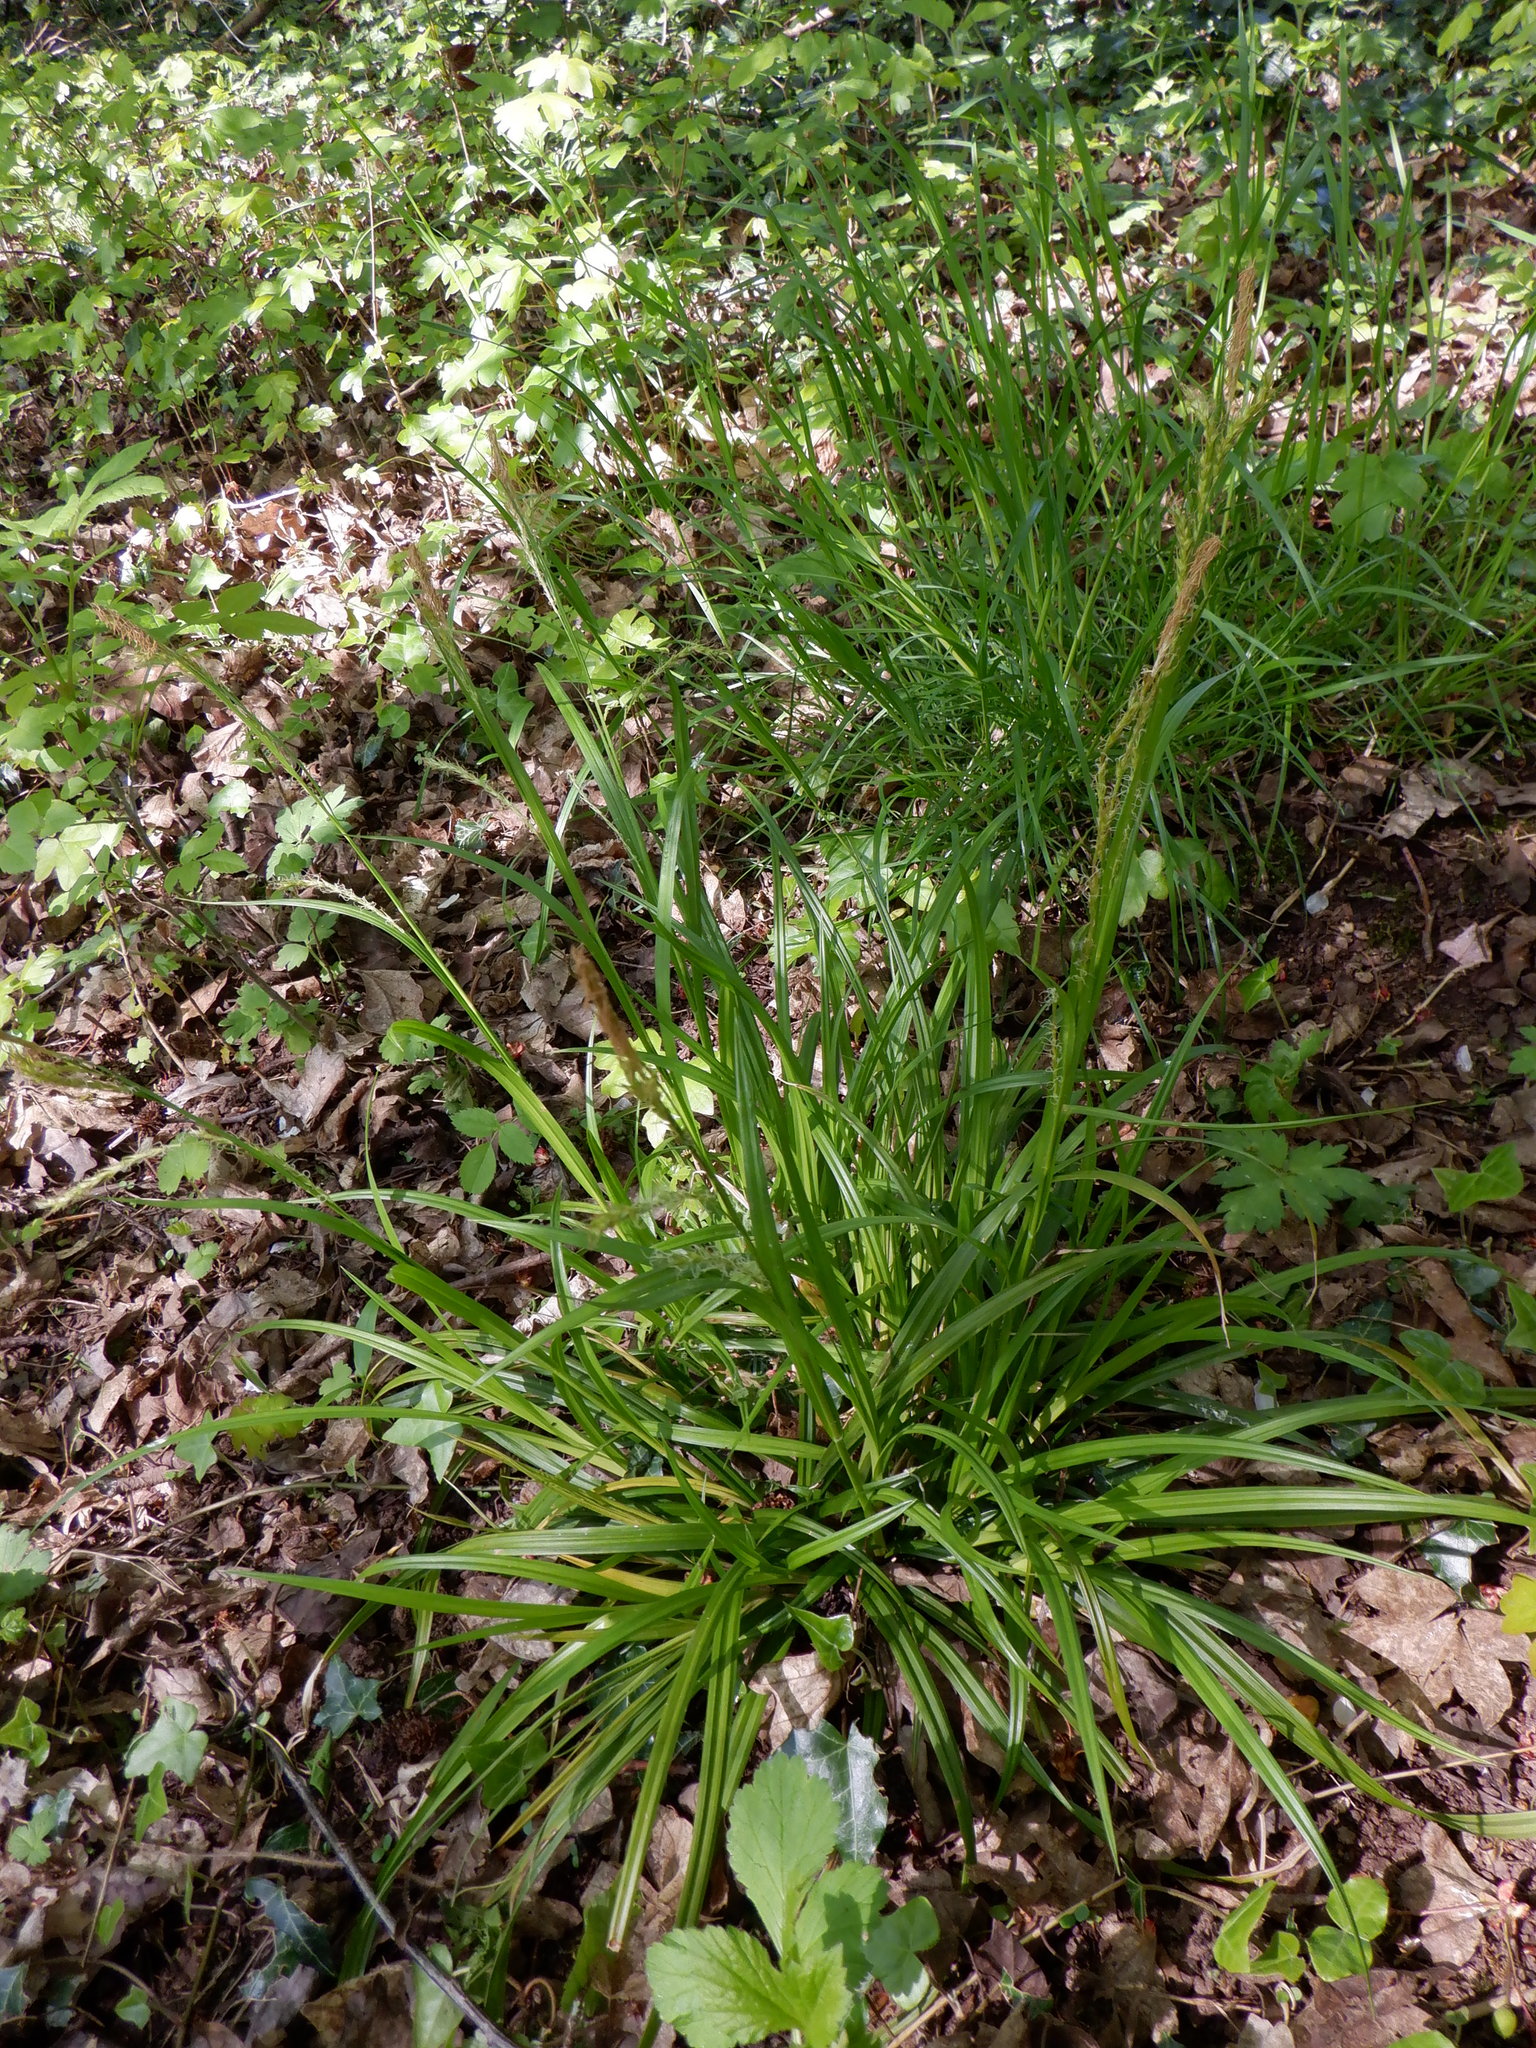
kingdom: Plantae
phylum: Tracheophyta
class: Liliopsida
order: Poales
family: Cyperaceae
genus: Carex
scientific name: Carex sylvatica
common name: Wood-sedge
